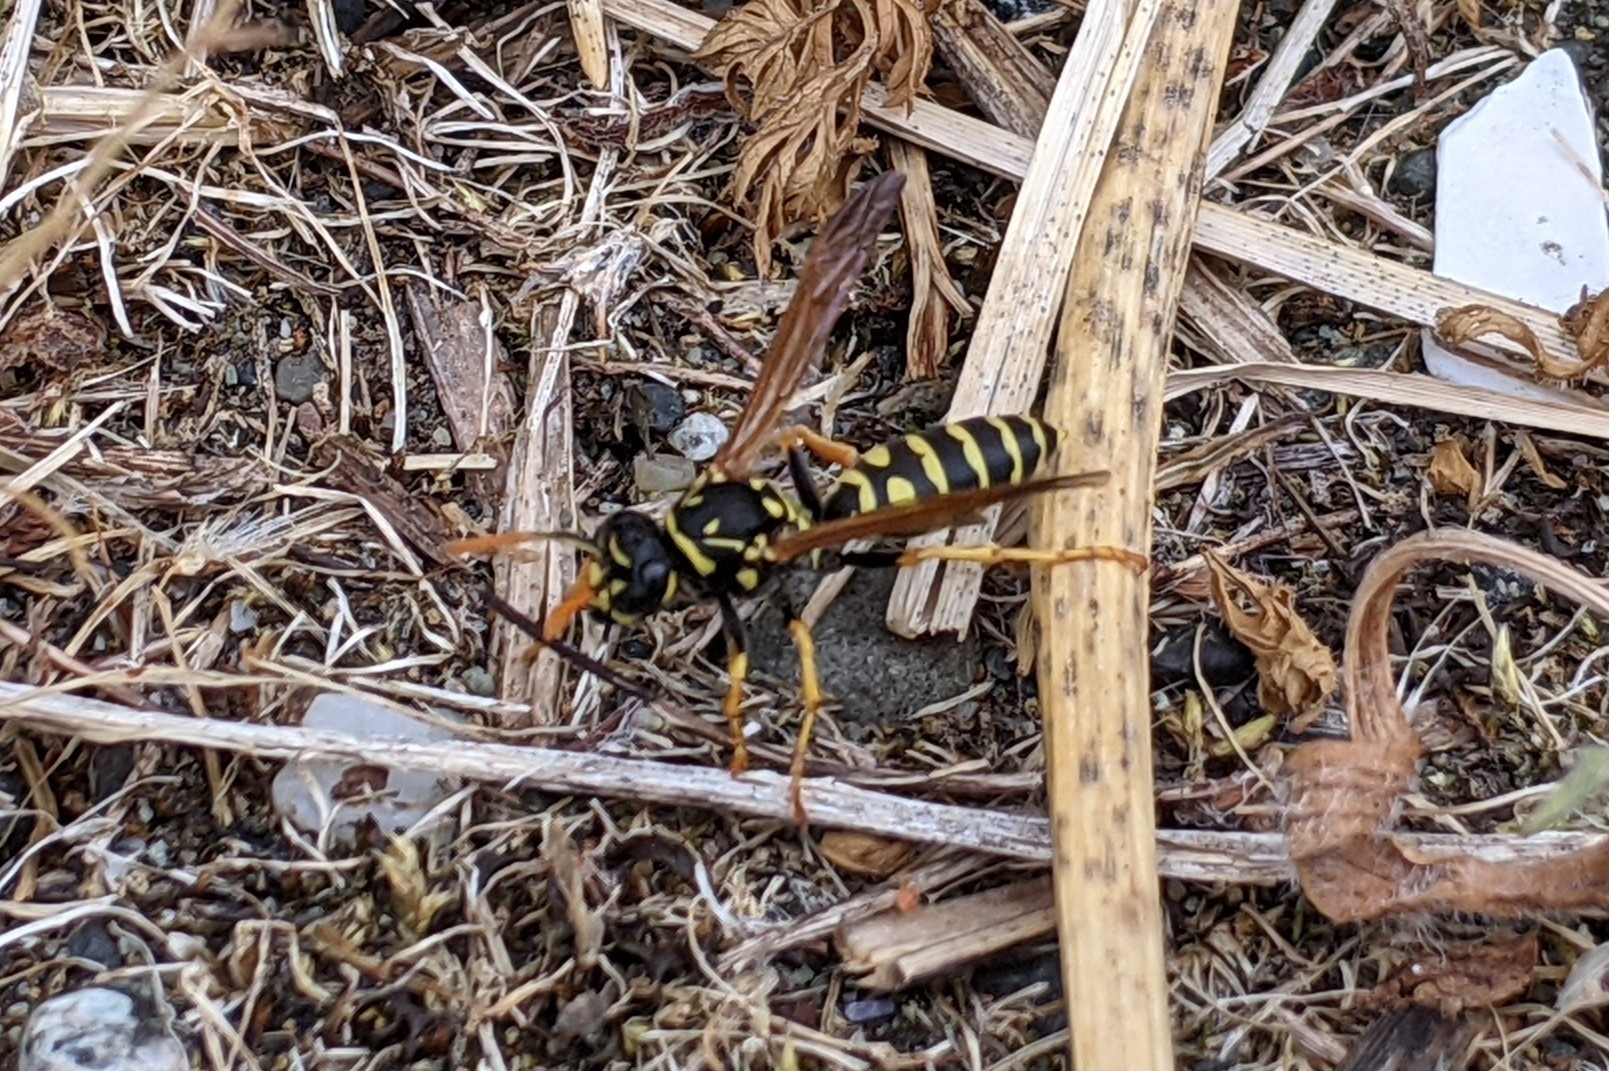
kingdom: Animalia
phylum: Arthropoda
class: Insecta
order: Hymenoptera
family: Eumenidae
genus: Polistes
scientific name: Polistes dominula
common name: Paper wasp
